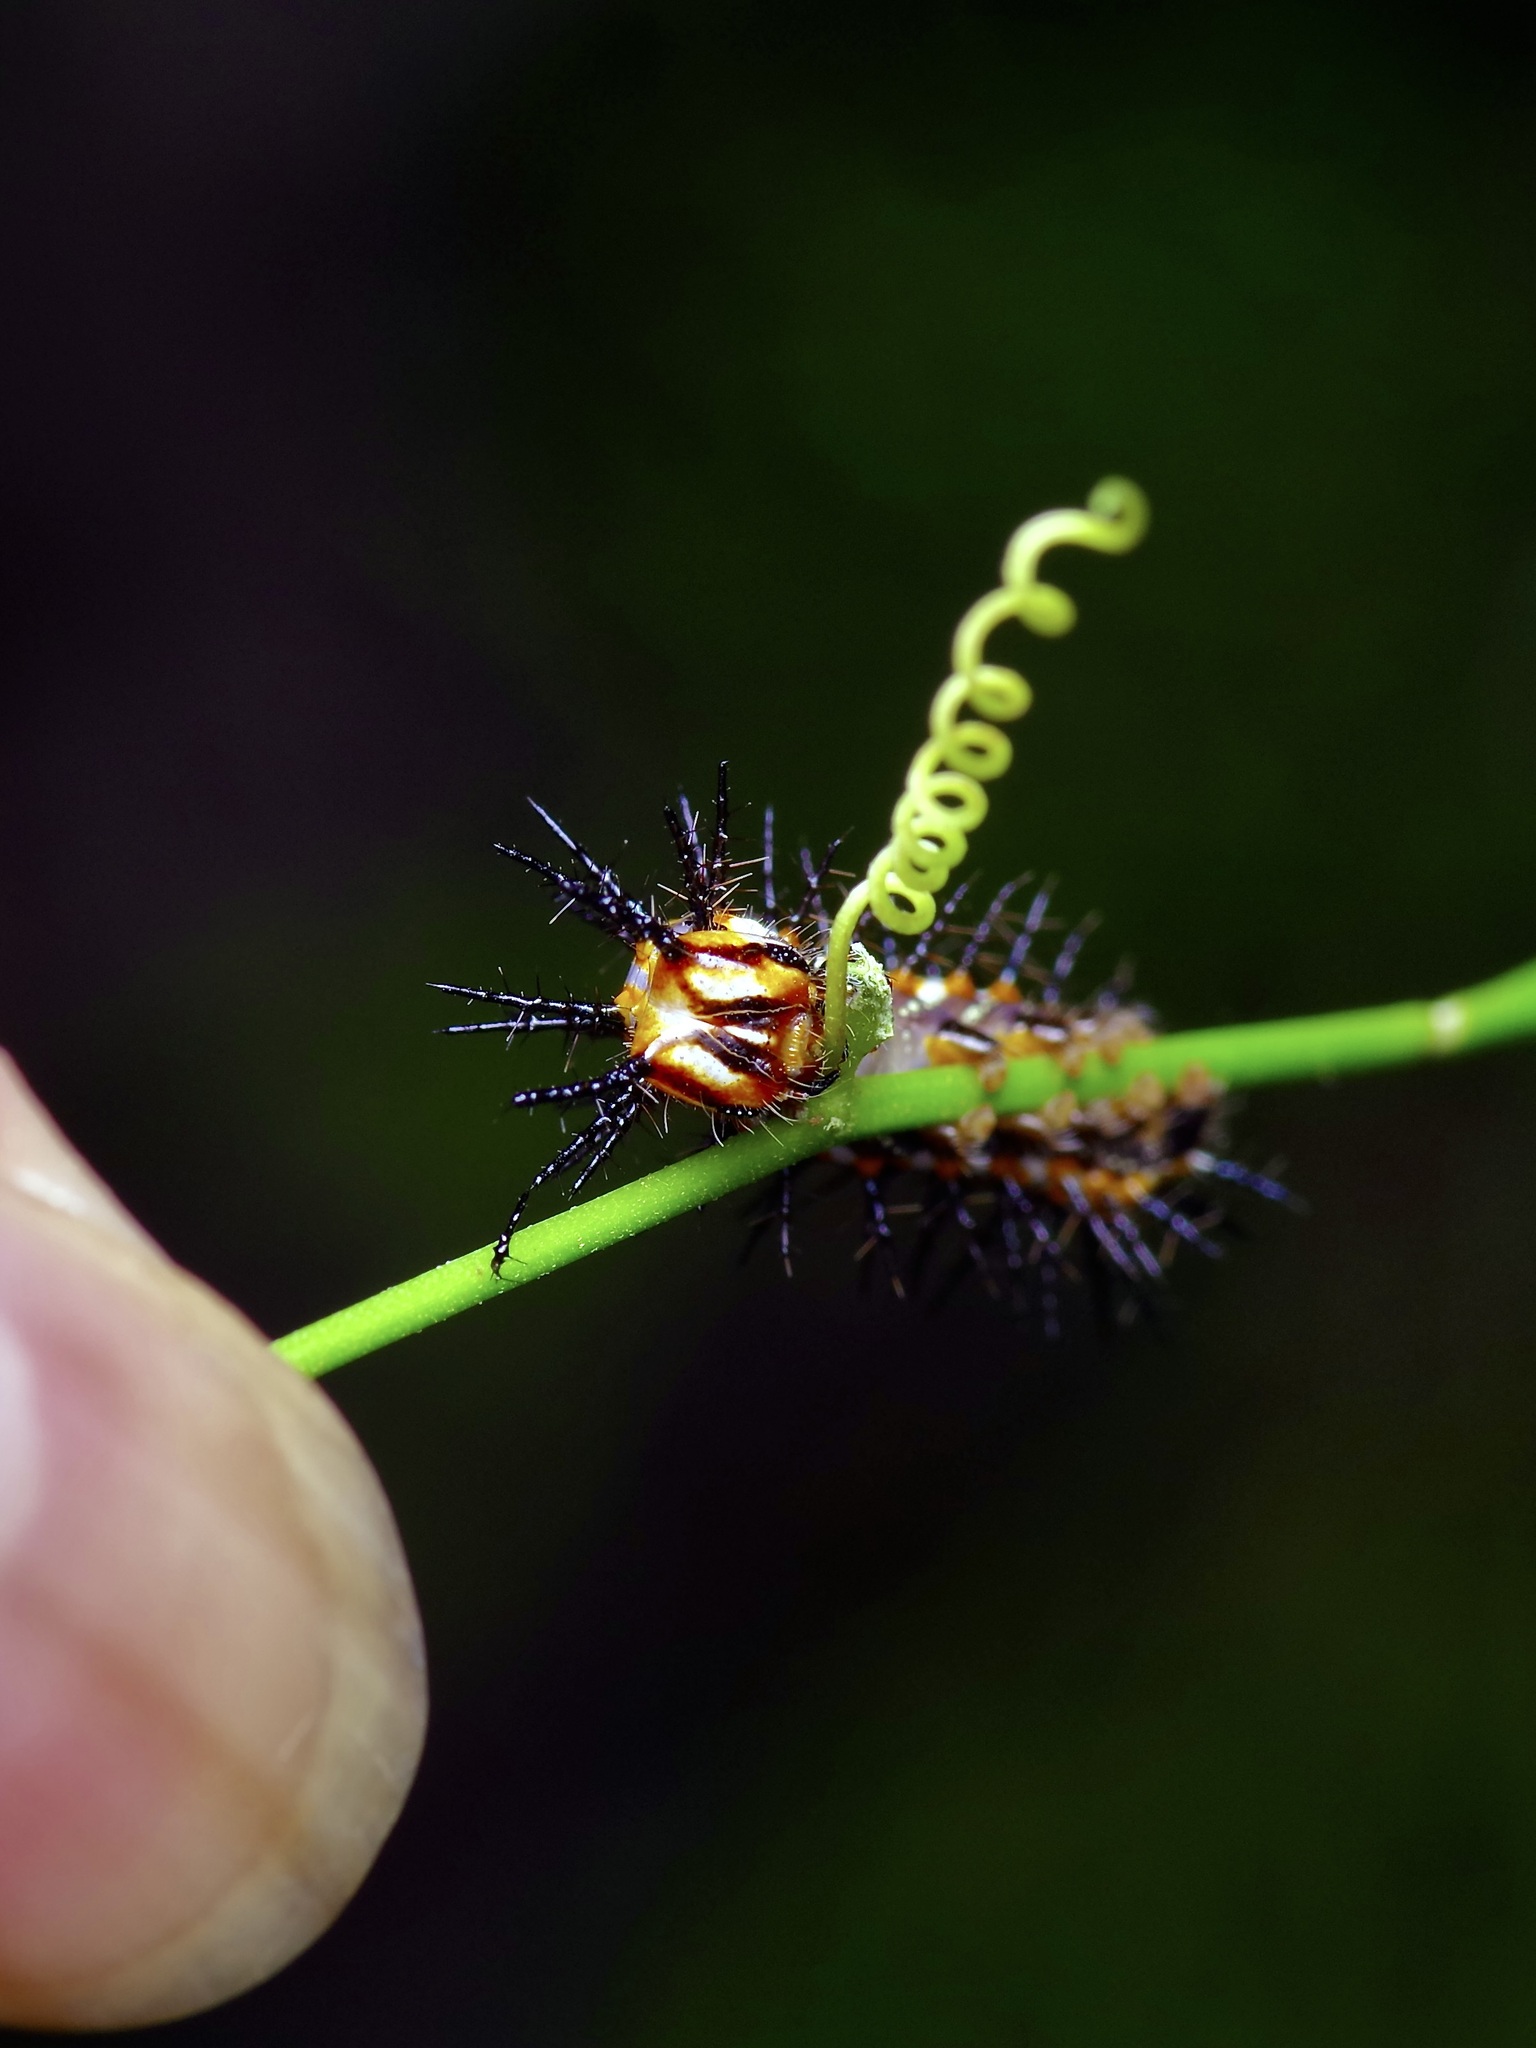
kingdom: Animalia
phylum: Arthropoda
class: Insecta
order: Lepidoptera
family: Nymphalidae
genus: Dione
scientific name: Dione vanillae
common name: Gulf fritillary
